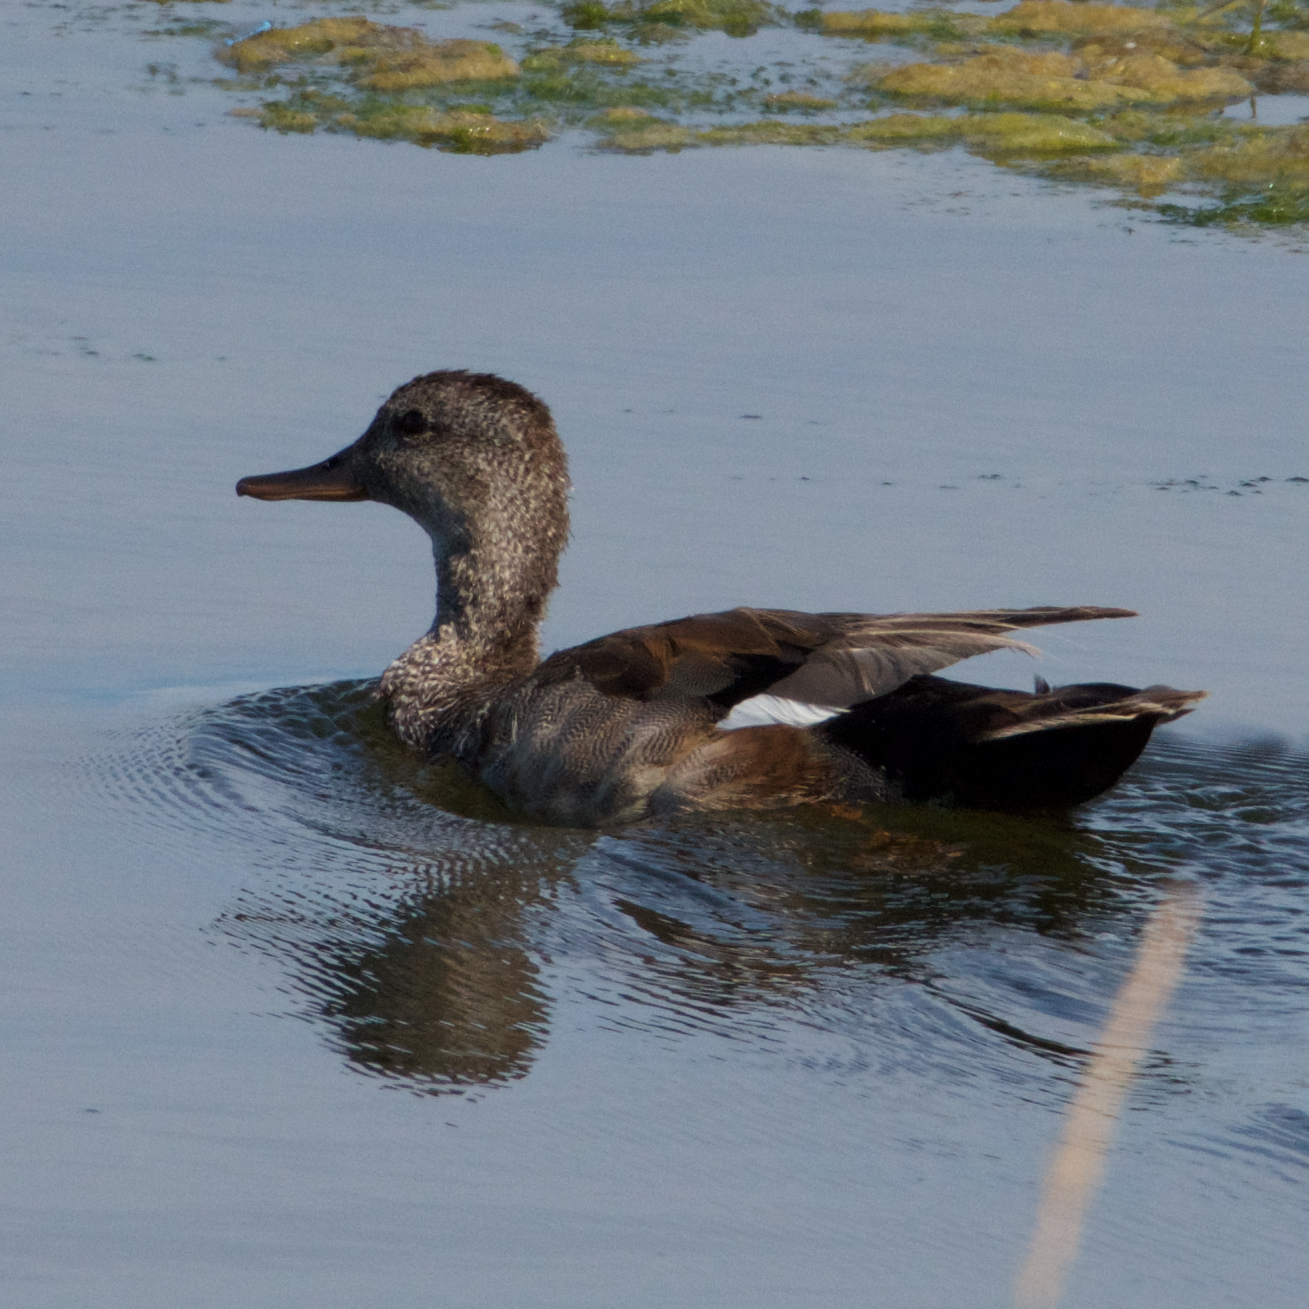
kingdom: Animalia
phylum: Chordata
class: Aves
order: Anseriformes
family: Anatidae
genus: Mareca
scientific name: Mareca strepera
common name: Gadwall
